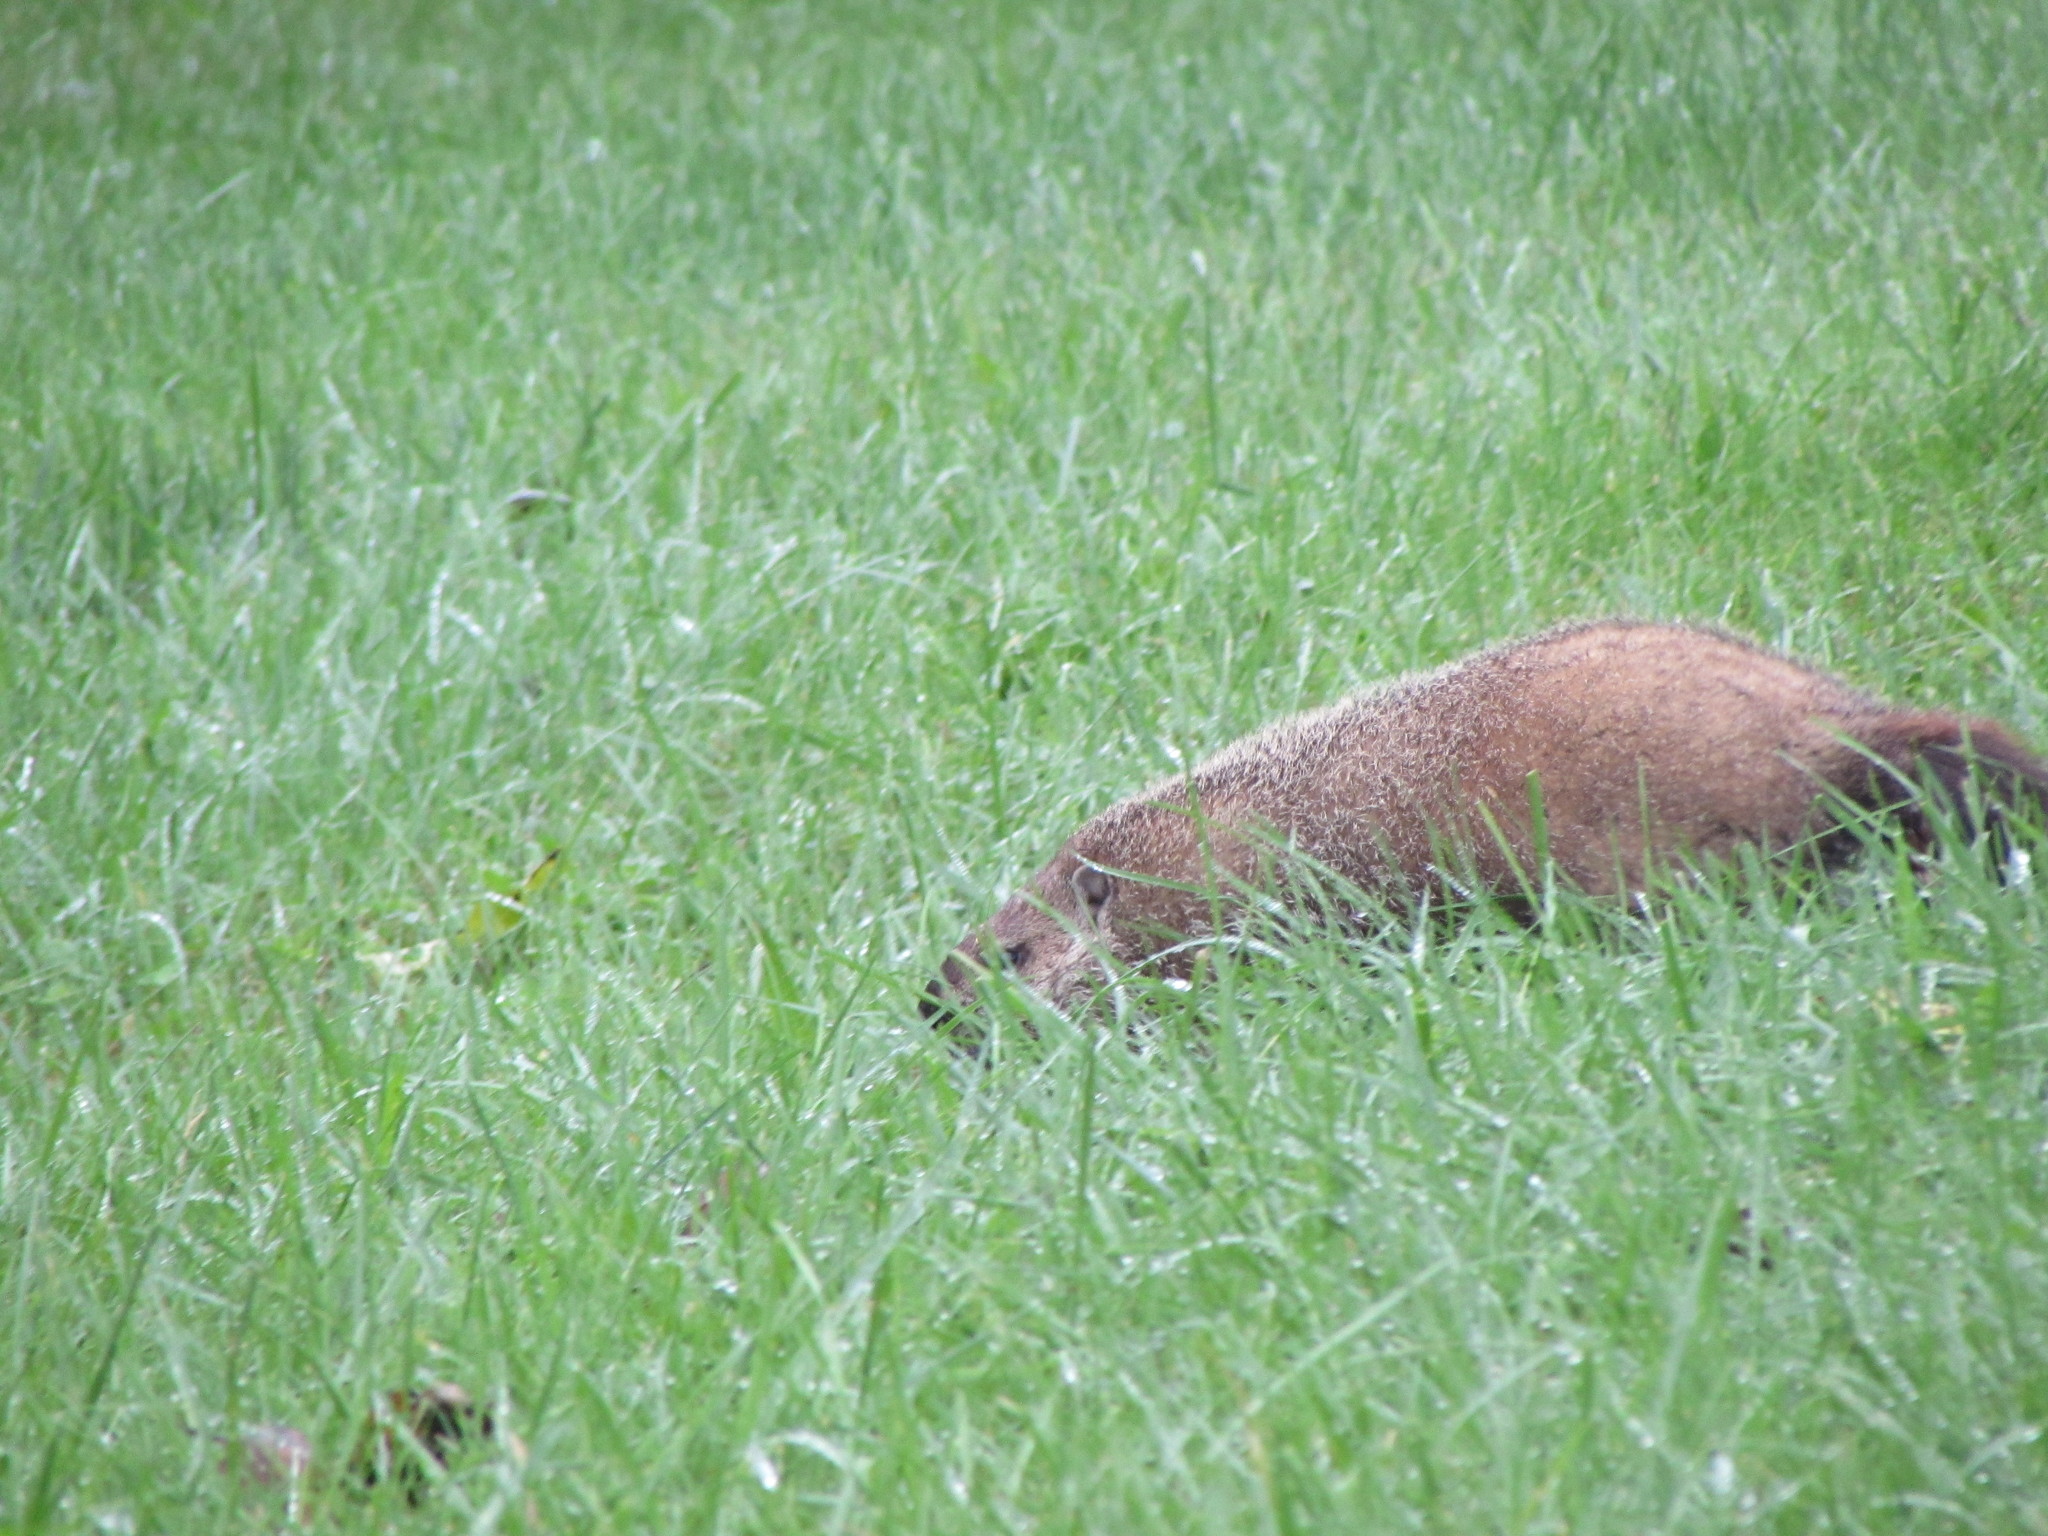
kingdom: Animalia
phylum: Chordata
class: Mammalia
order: Rodentia
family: Sciuridae
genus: Marmota
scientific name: Marmota monax
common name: Groundhog
